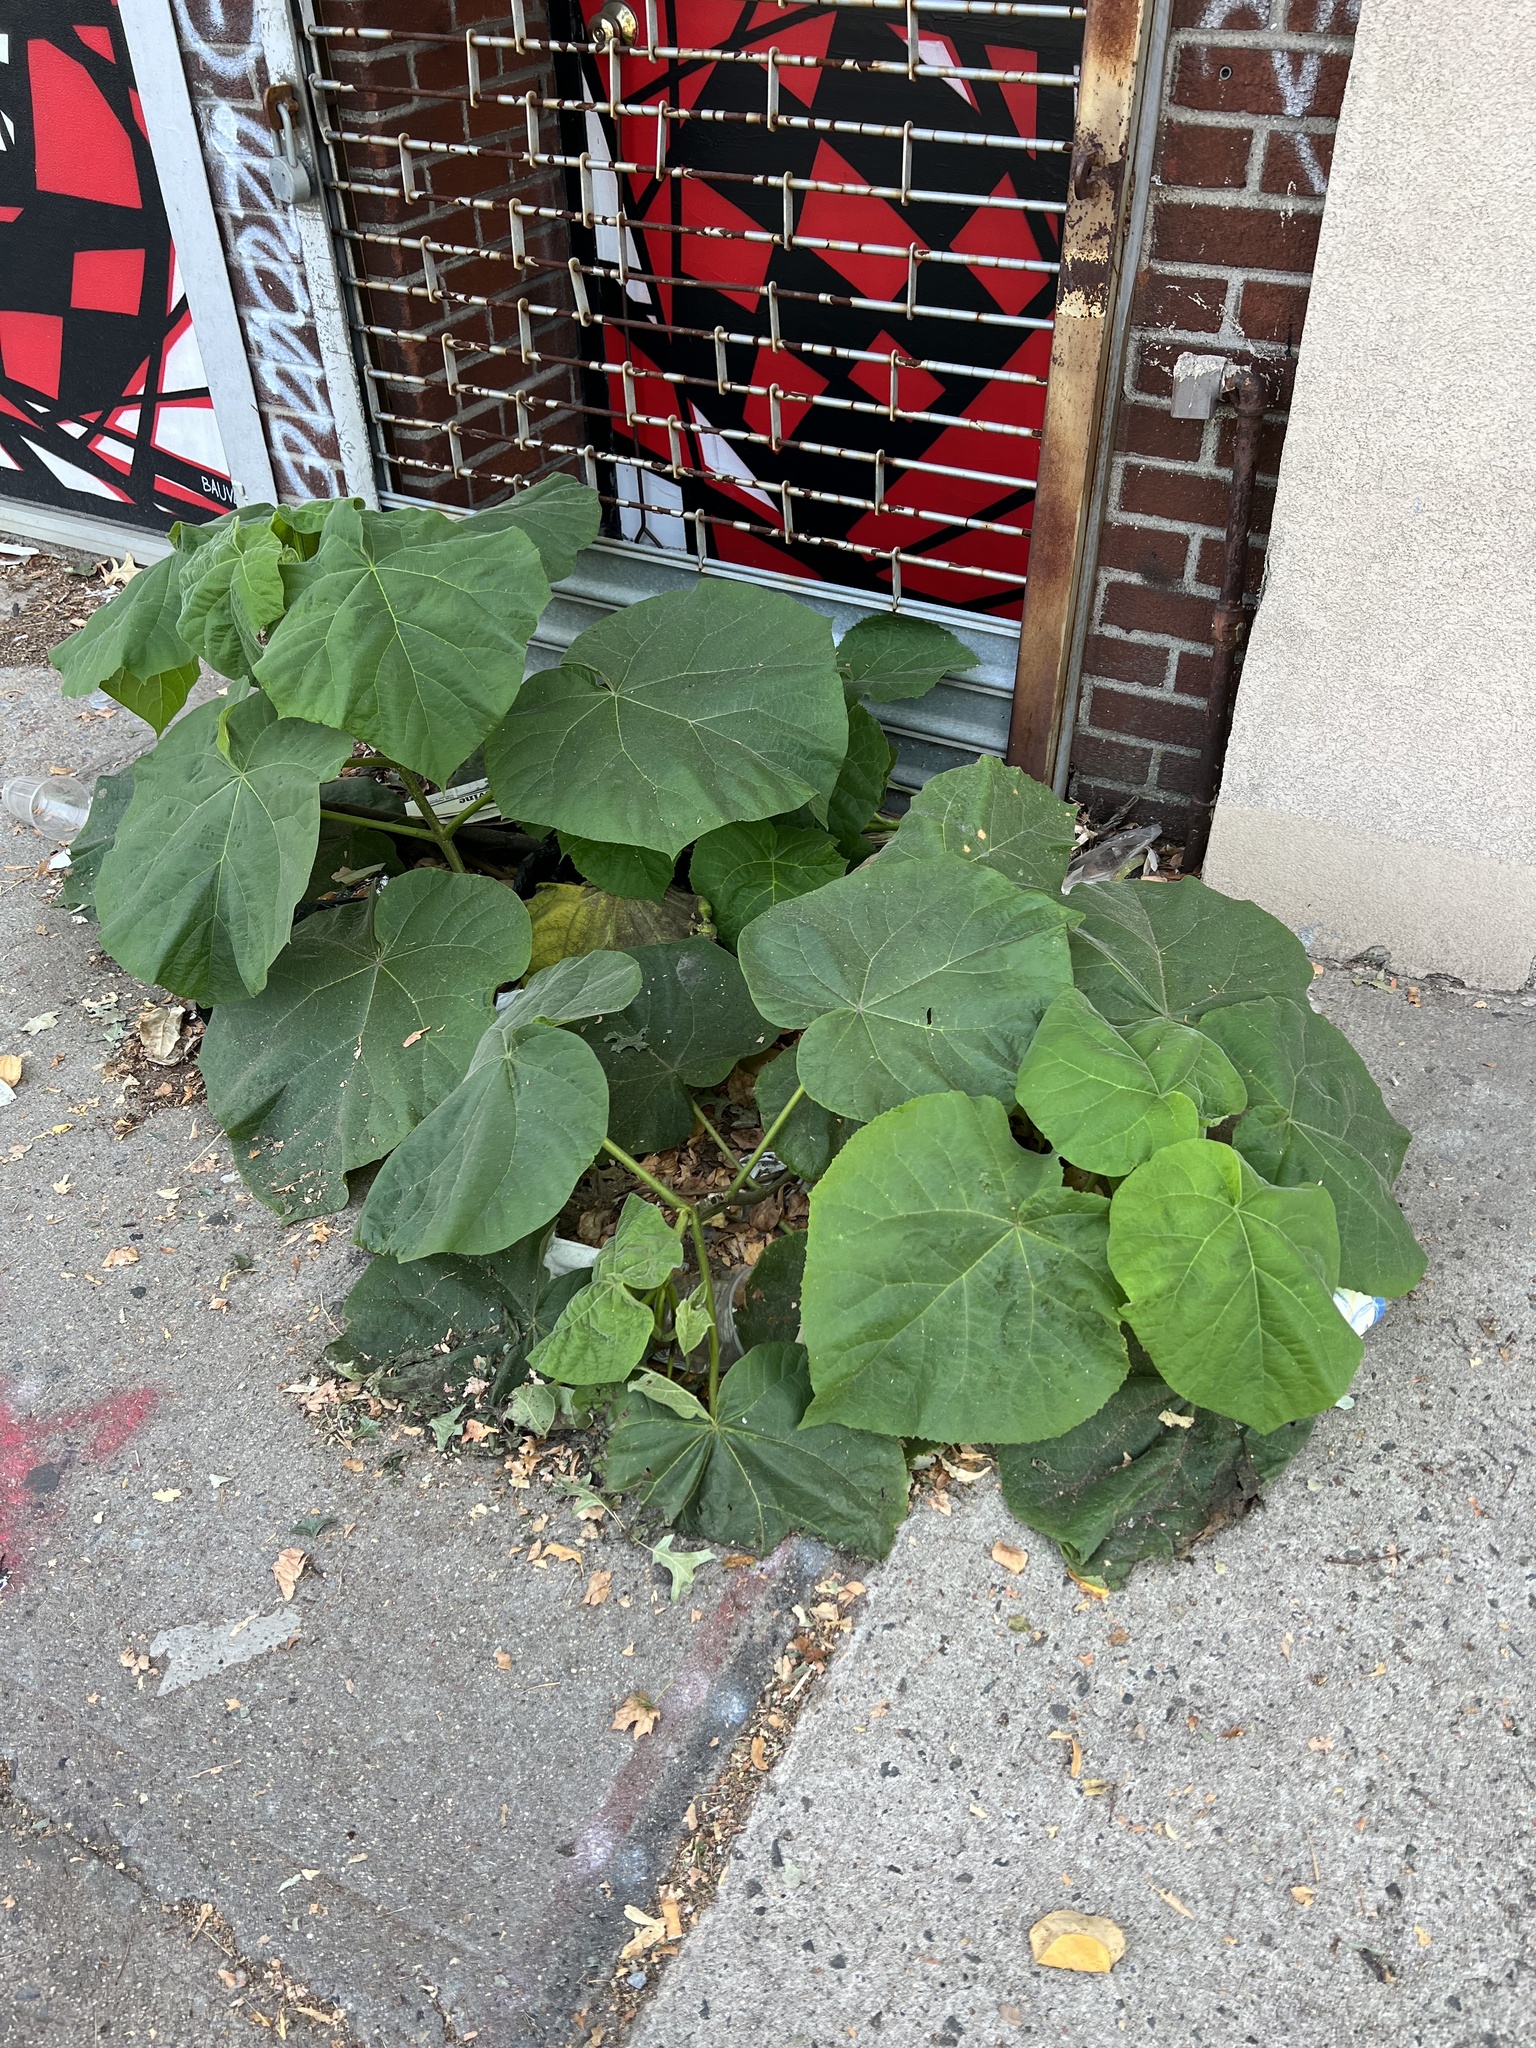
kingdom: Plantae
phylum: Tracheophyta
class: Magnoliopsida
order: Lamiales
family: Paulowniaceae
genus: Paulownia
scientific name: Paulownia tomentosa
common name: Foxglove-tree
